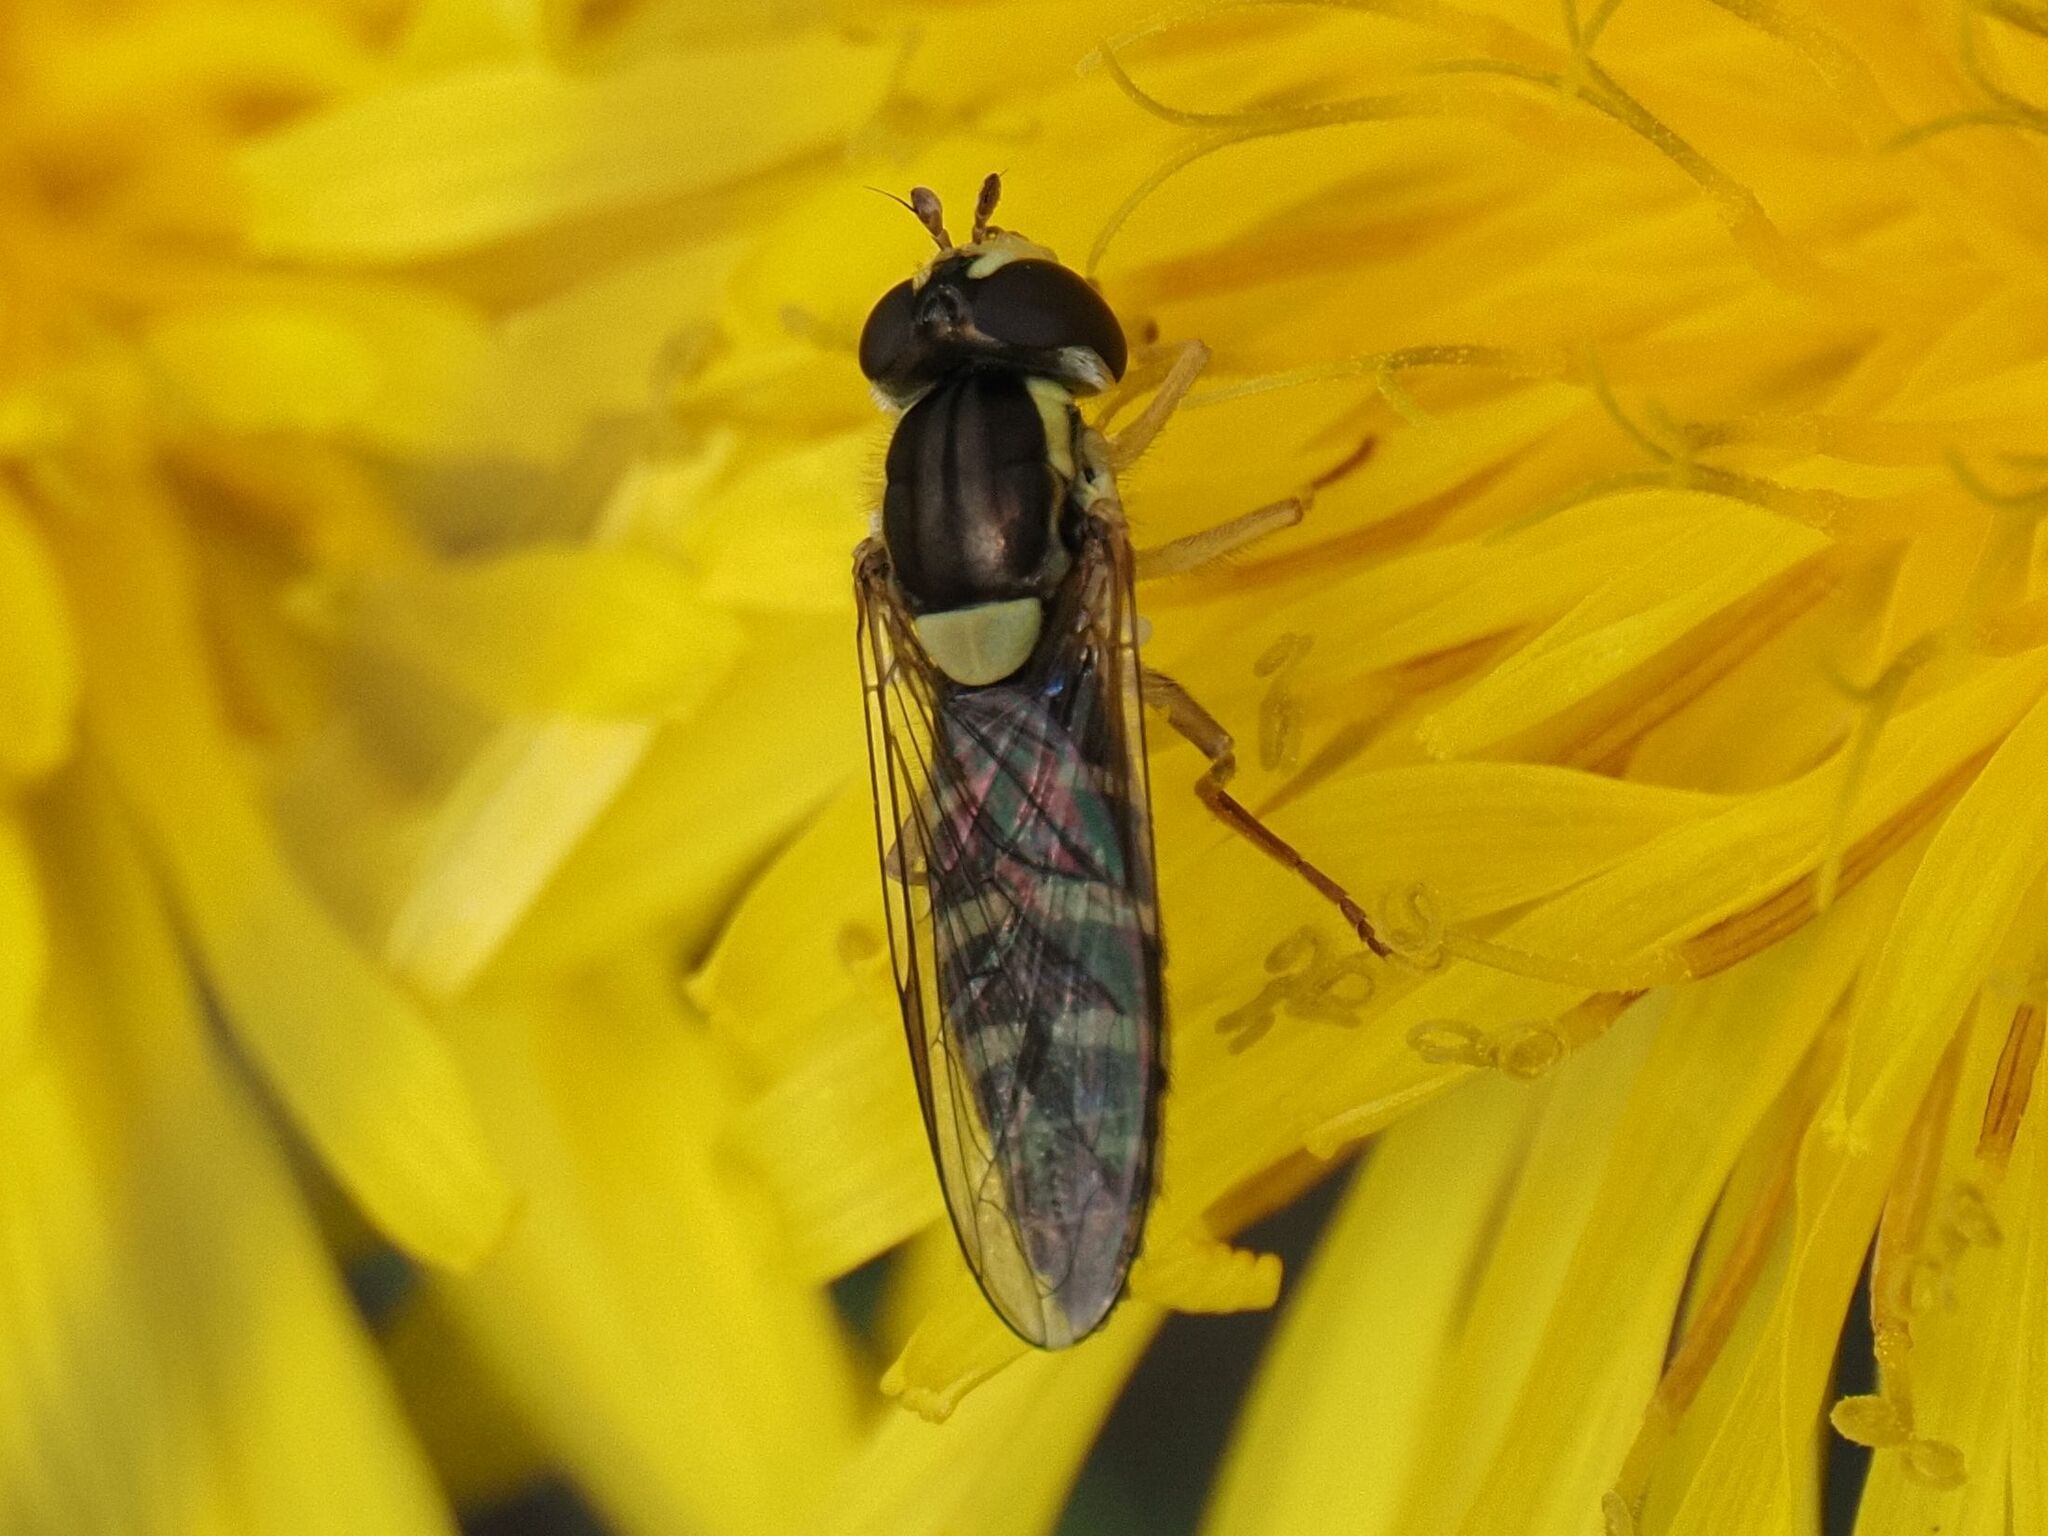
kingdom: Animalia
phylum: Arthropoda
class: Insecta
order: Diptera
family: Syrphidae
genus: Sphaerophoria
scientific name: Sphaerophoria
